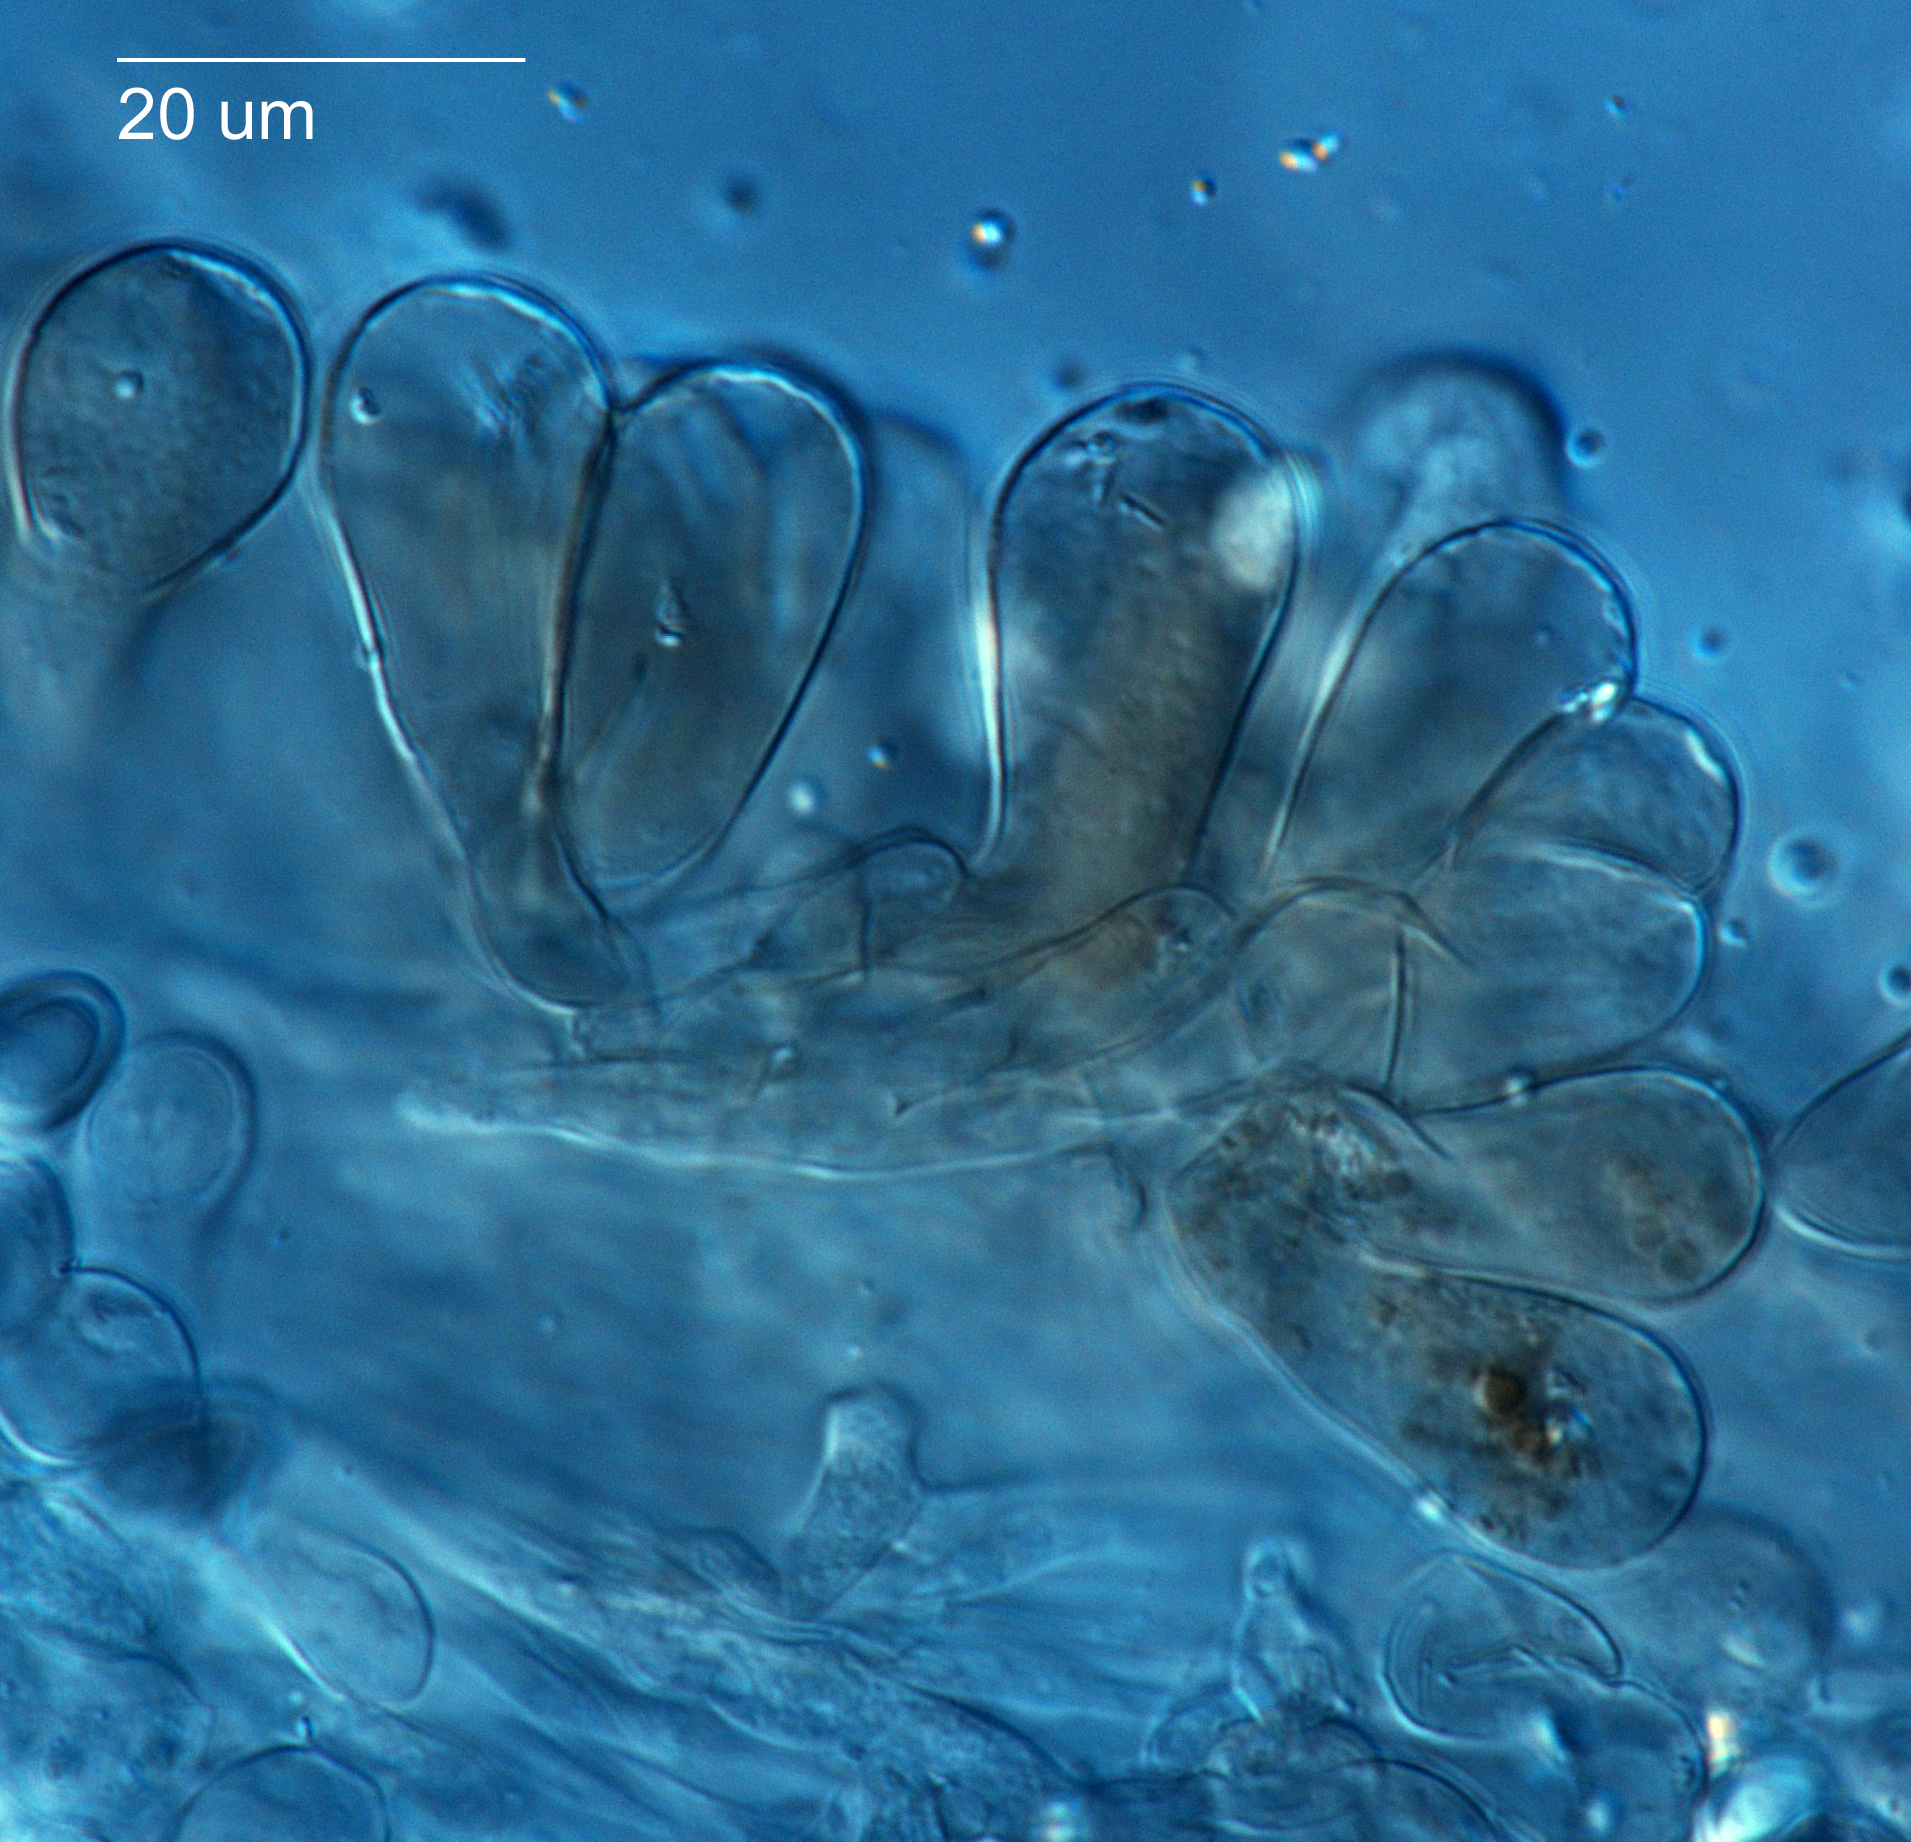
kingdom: Fungi
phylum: Basidiomycota
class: Agaricomycetes
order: Agaricales
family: Agaricaceae
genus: Chlorophyllum
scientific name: Chlorophyllum brunneum
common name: Brown parasol
